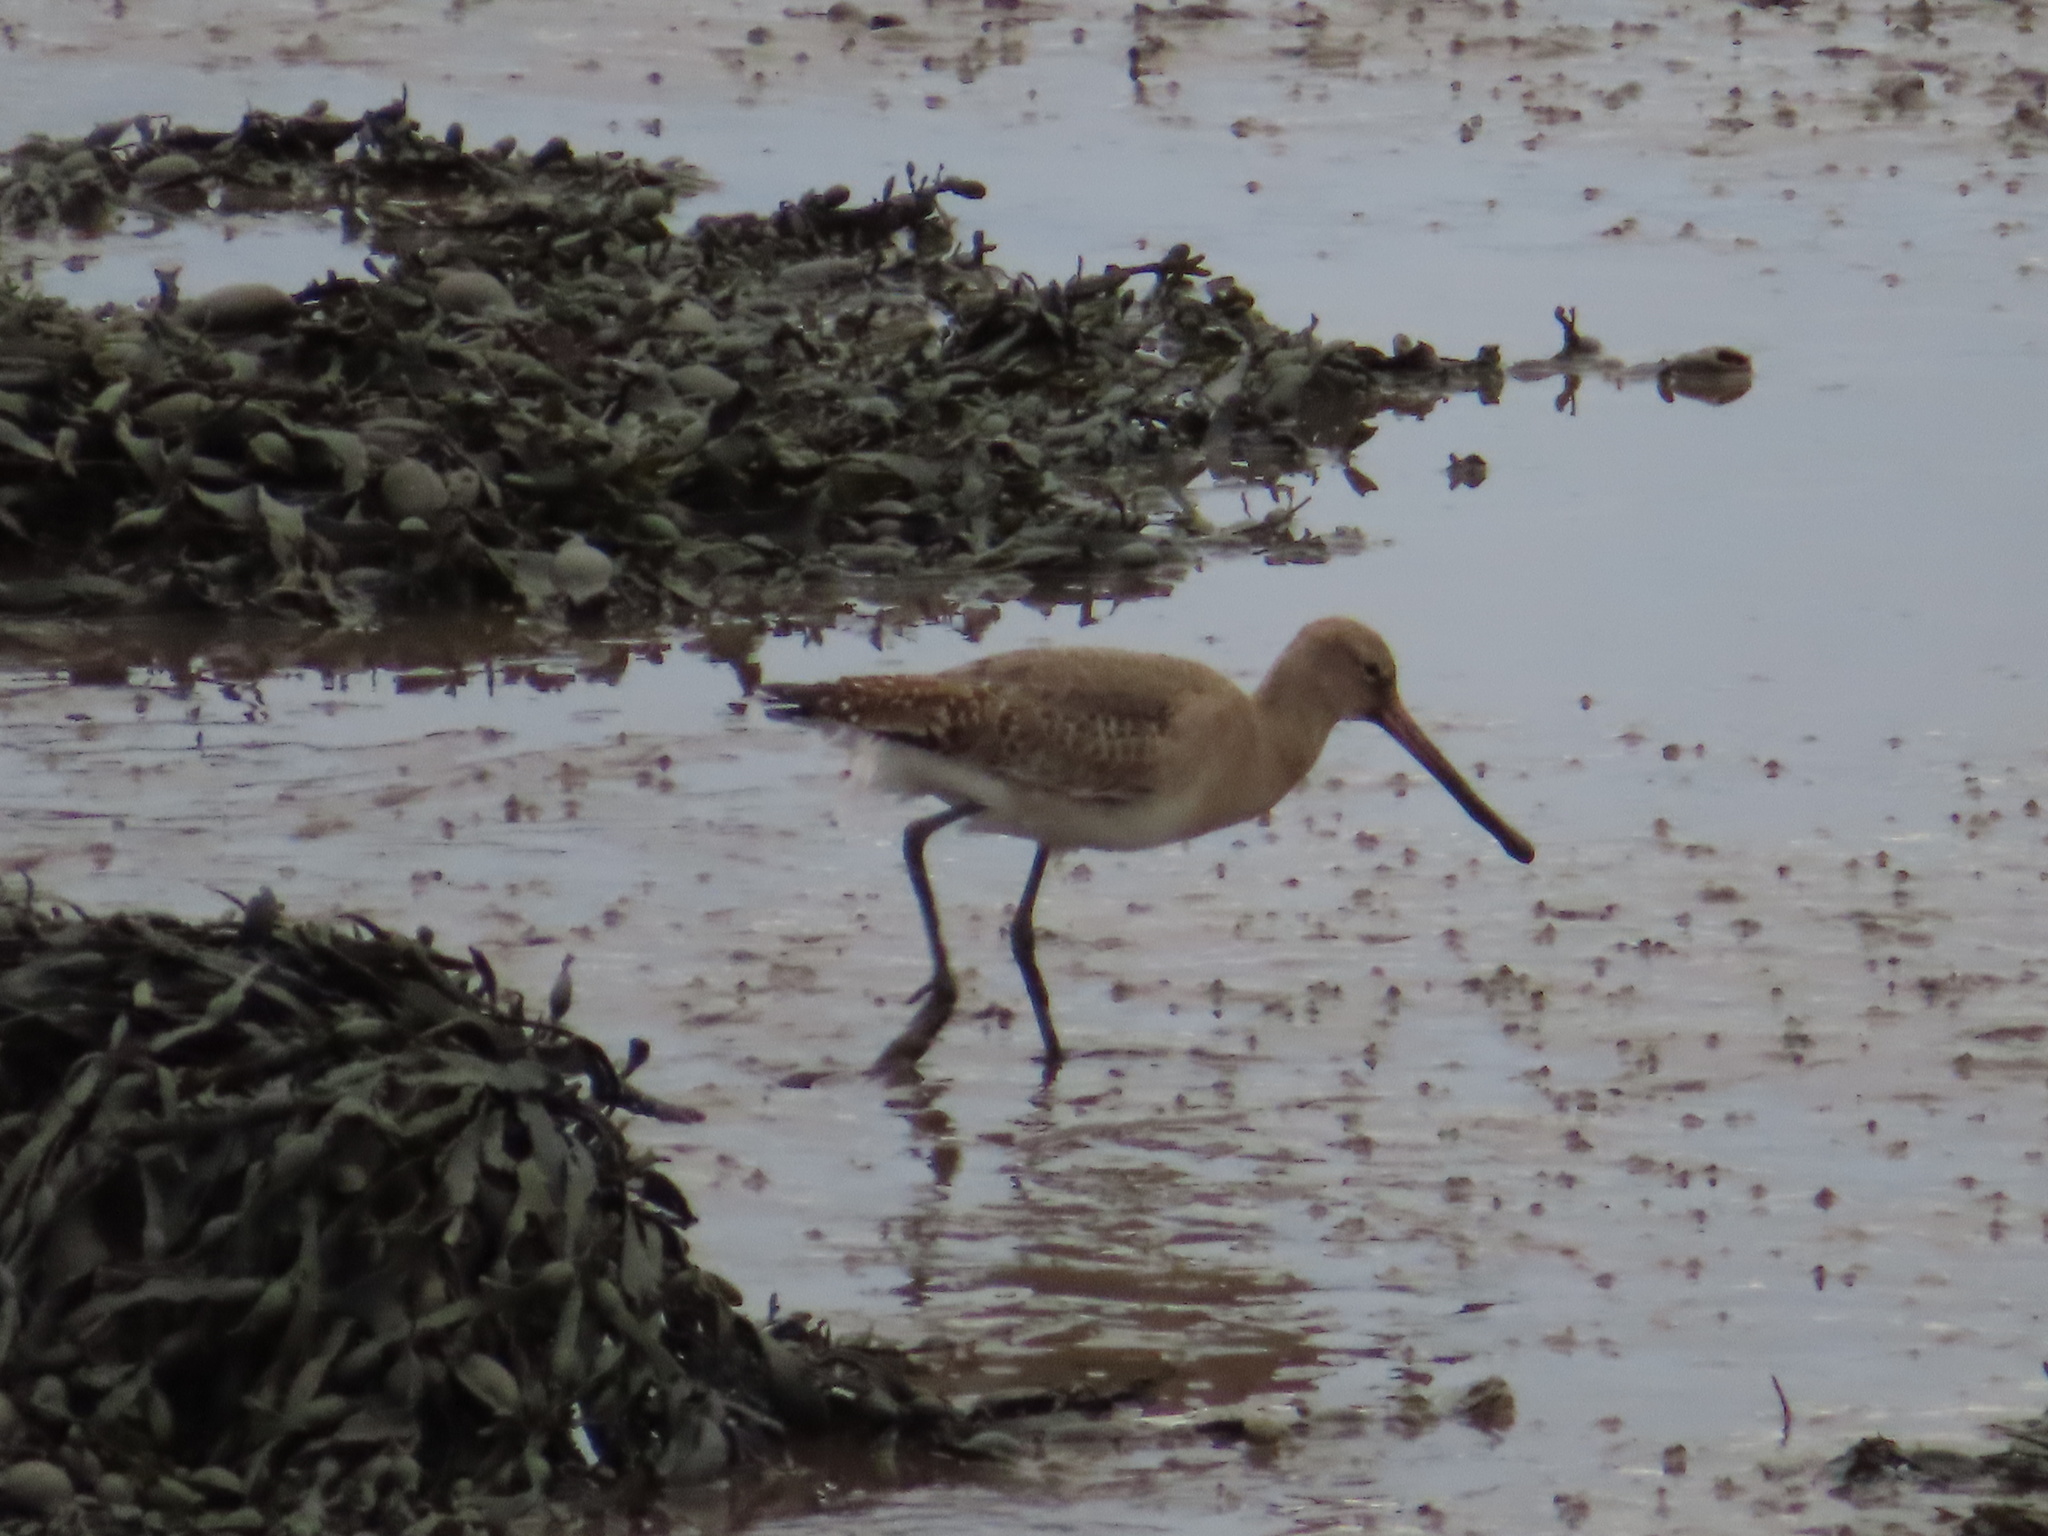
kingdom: Animalia
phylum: Chordata
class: Aves
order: Charadriiformes
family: Scolopacidae
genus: Limosa
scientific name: Limosa limosa
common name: Black-tailed godwit
